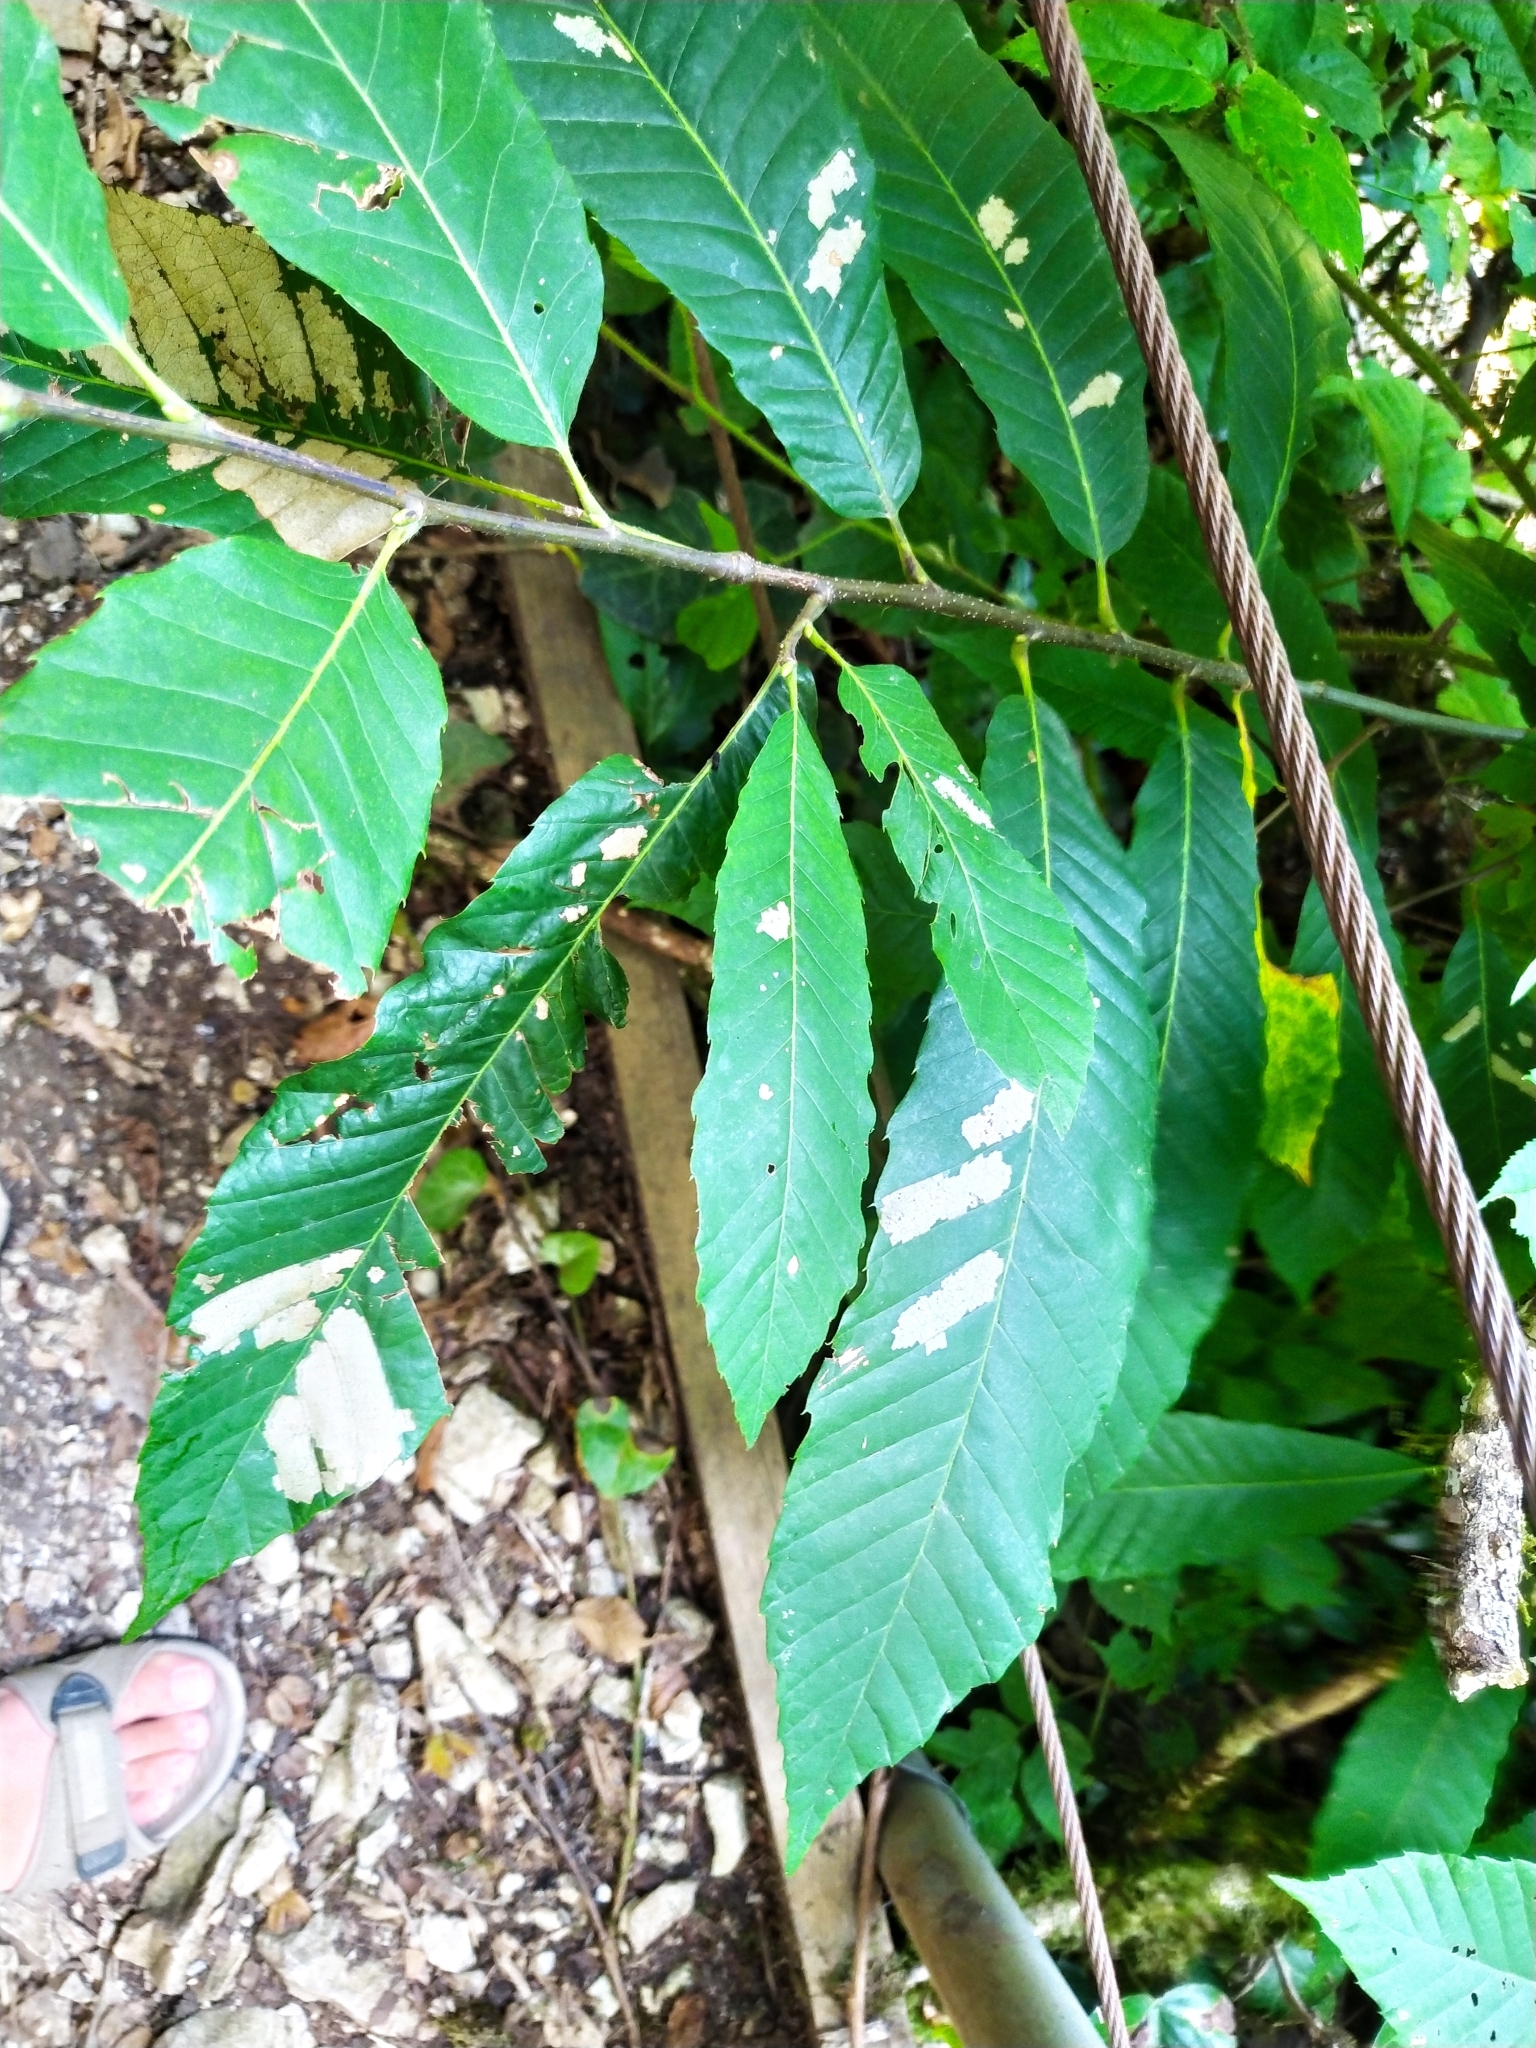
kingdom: Plantae
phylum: Tracheophyta
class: Magnoliopsida
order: Fagales
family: Fagaceae
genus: Castanea
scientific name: Castanea sativa
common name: Sweet chestnut
